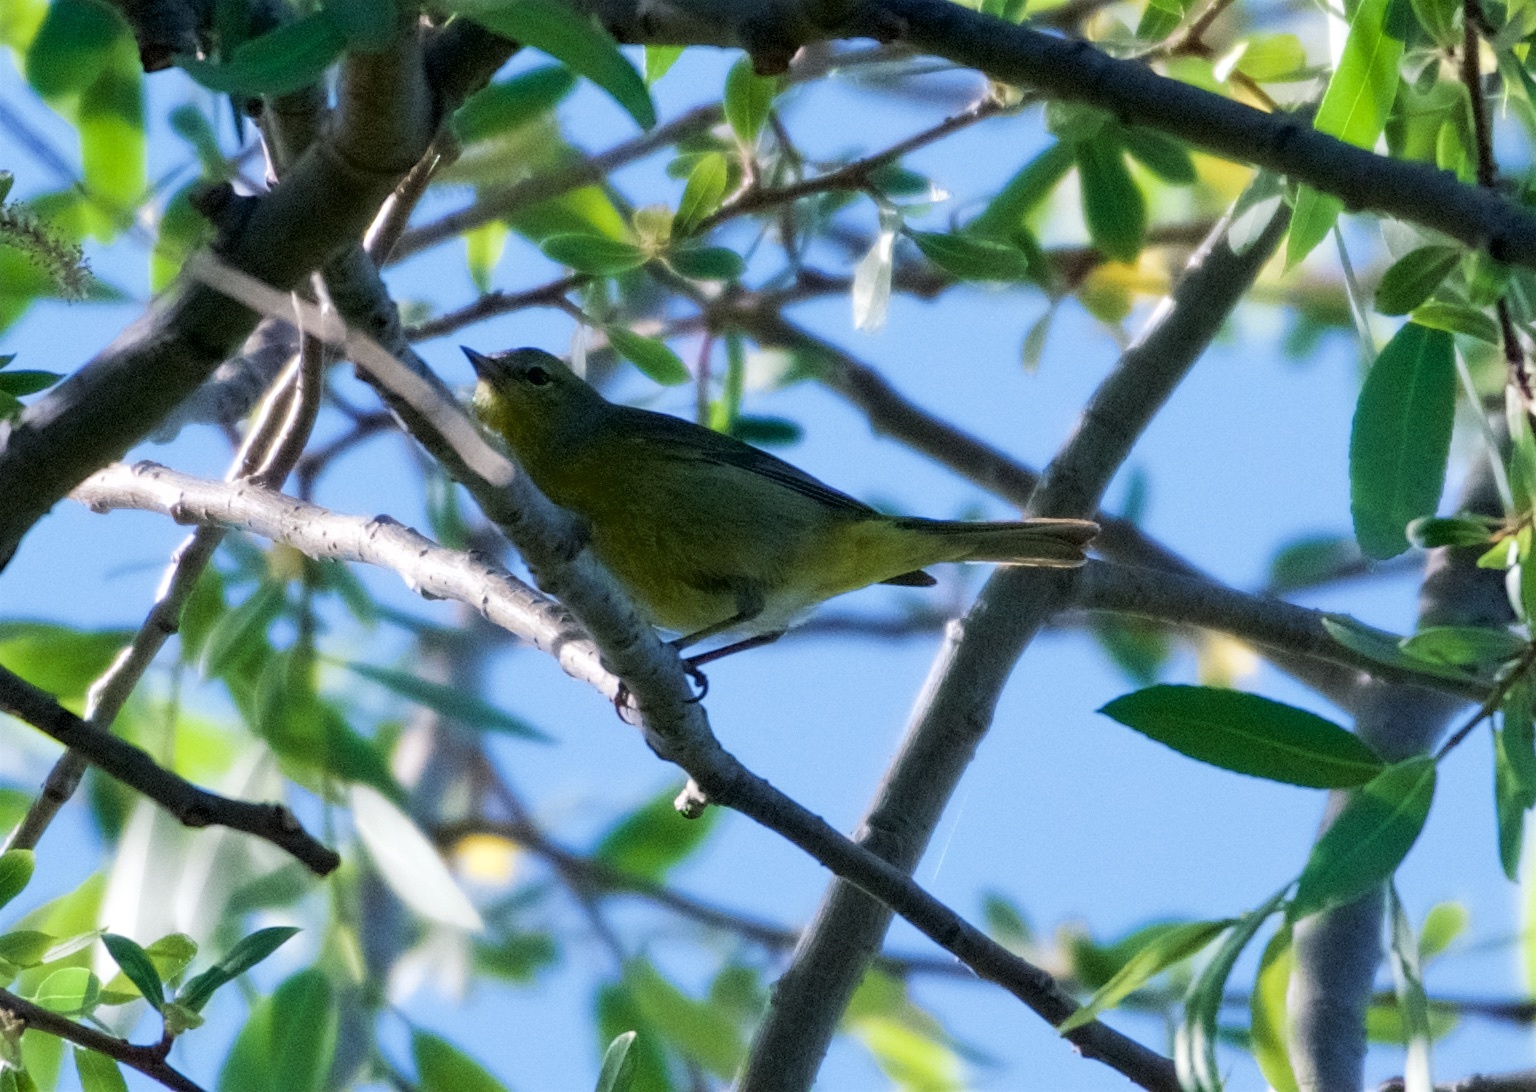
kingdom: Animalia
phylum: Chordata
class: Aves
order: Passeriformes
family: Parulidae
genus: Leiothlypis
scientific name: Leiothlypis celata
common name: Orange-crowned warbler
